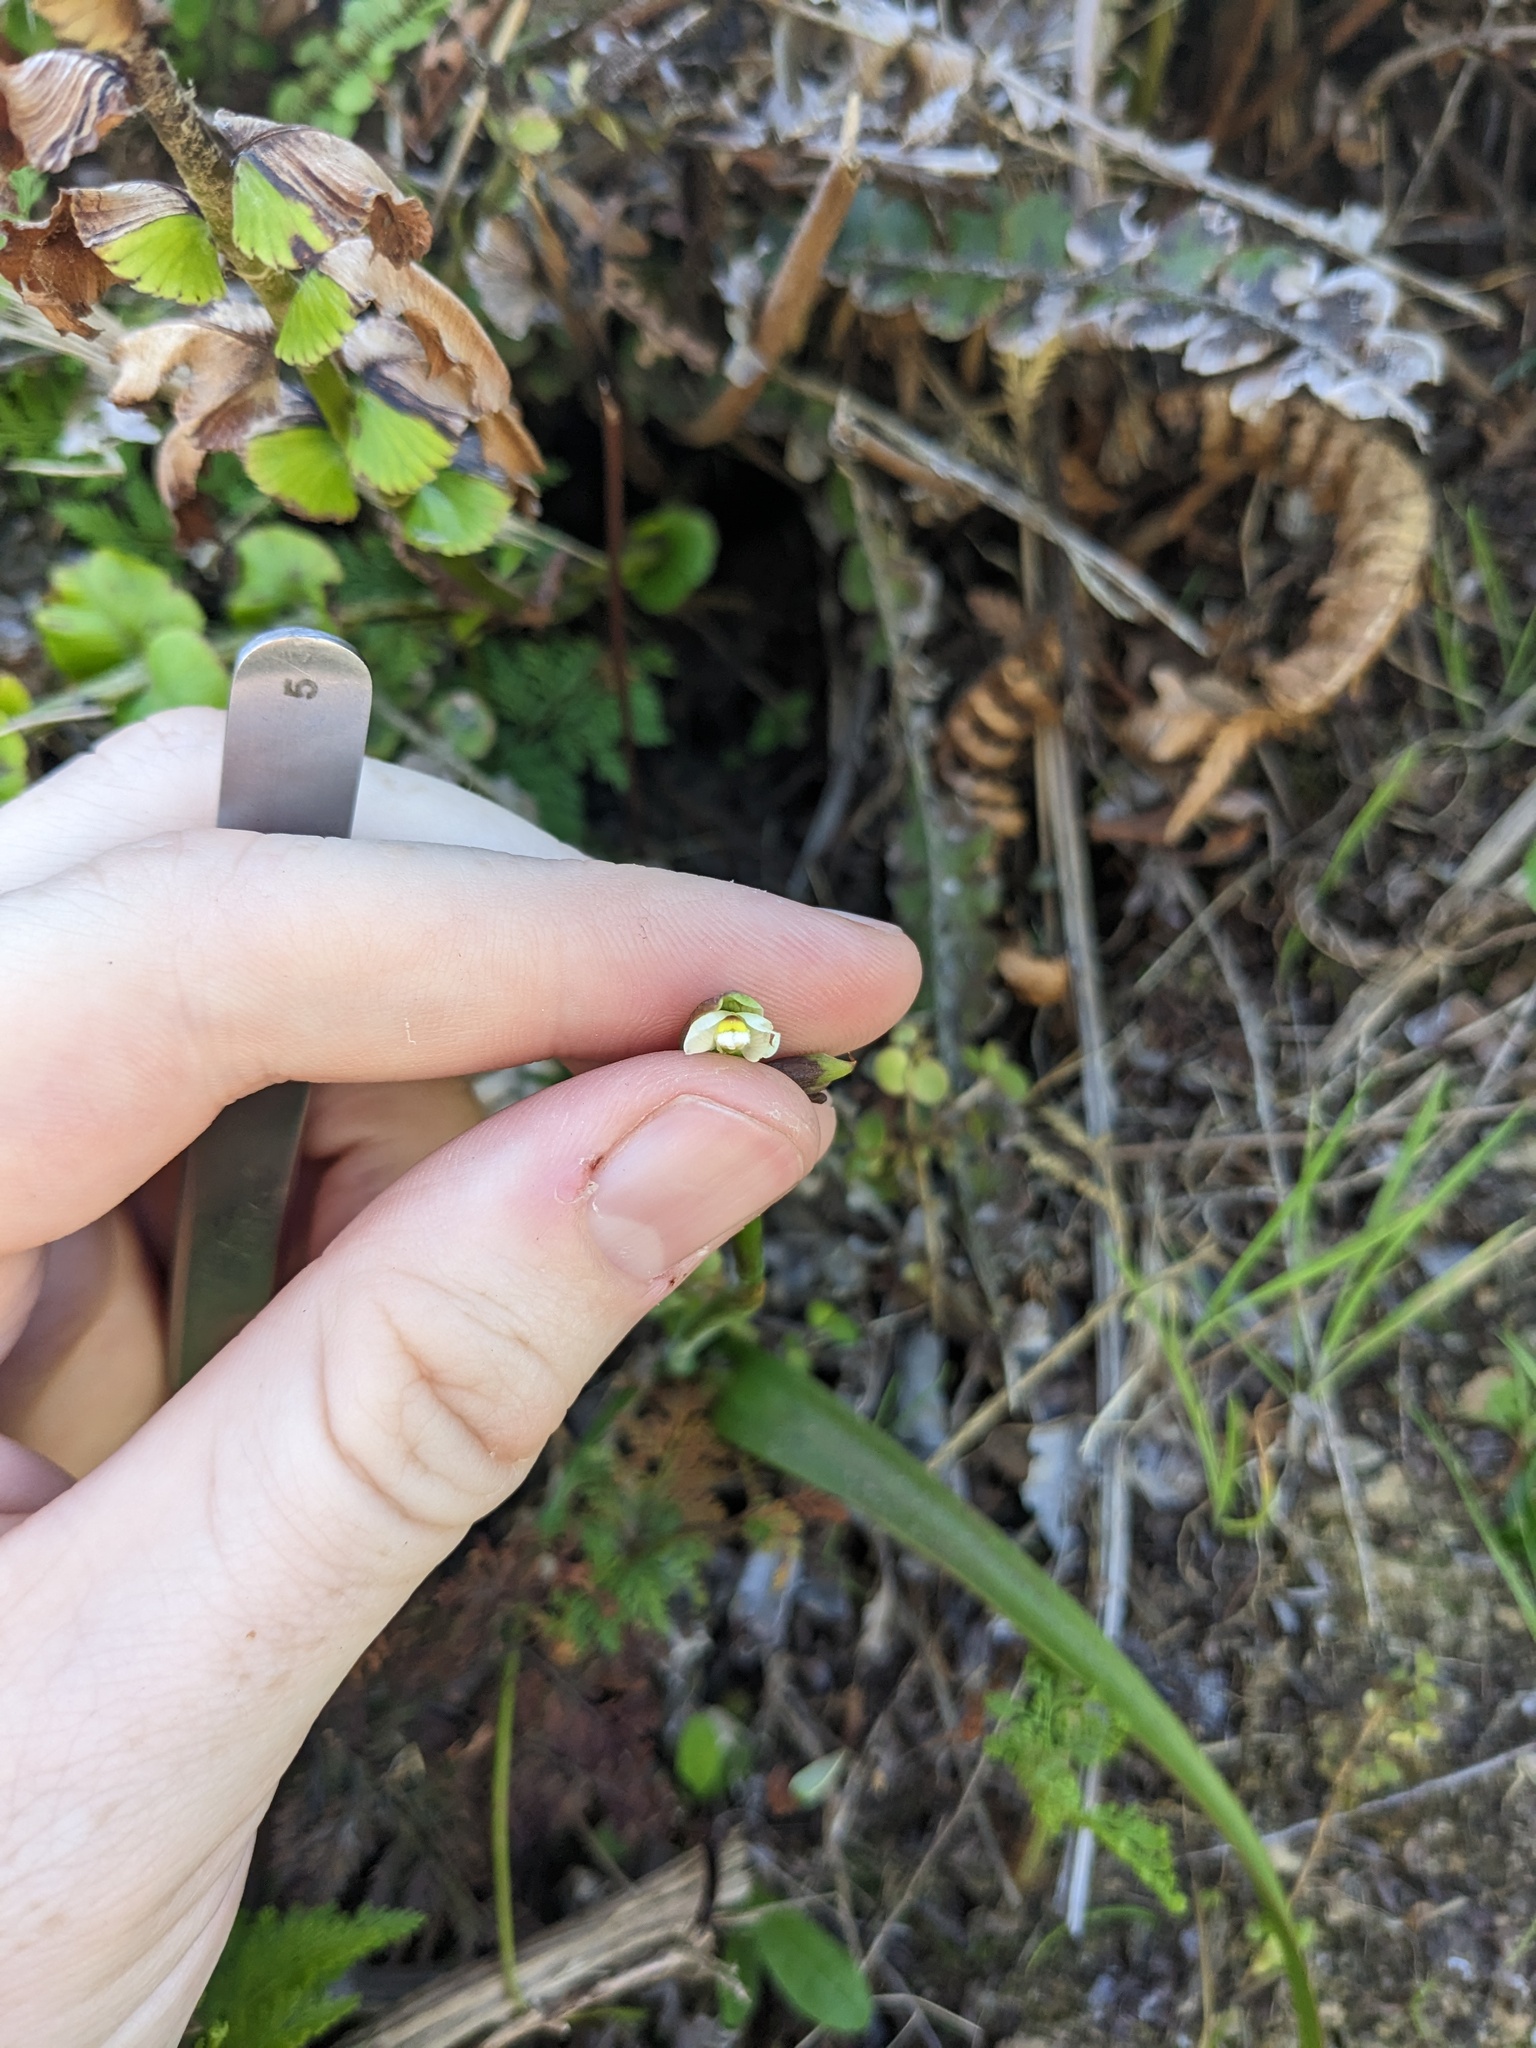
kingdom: Plantae
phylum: Tracheophyta
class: Liliopsida
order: Asparagales
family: Orchidaceae
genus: Thelymitra
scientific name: Thelymitra longifolia
